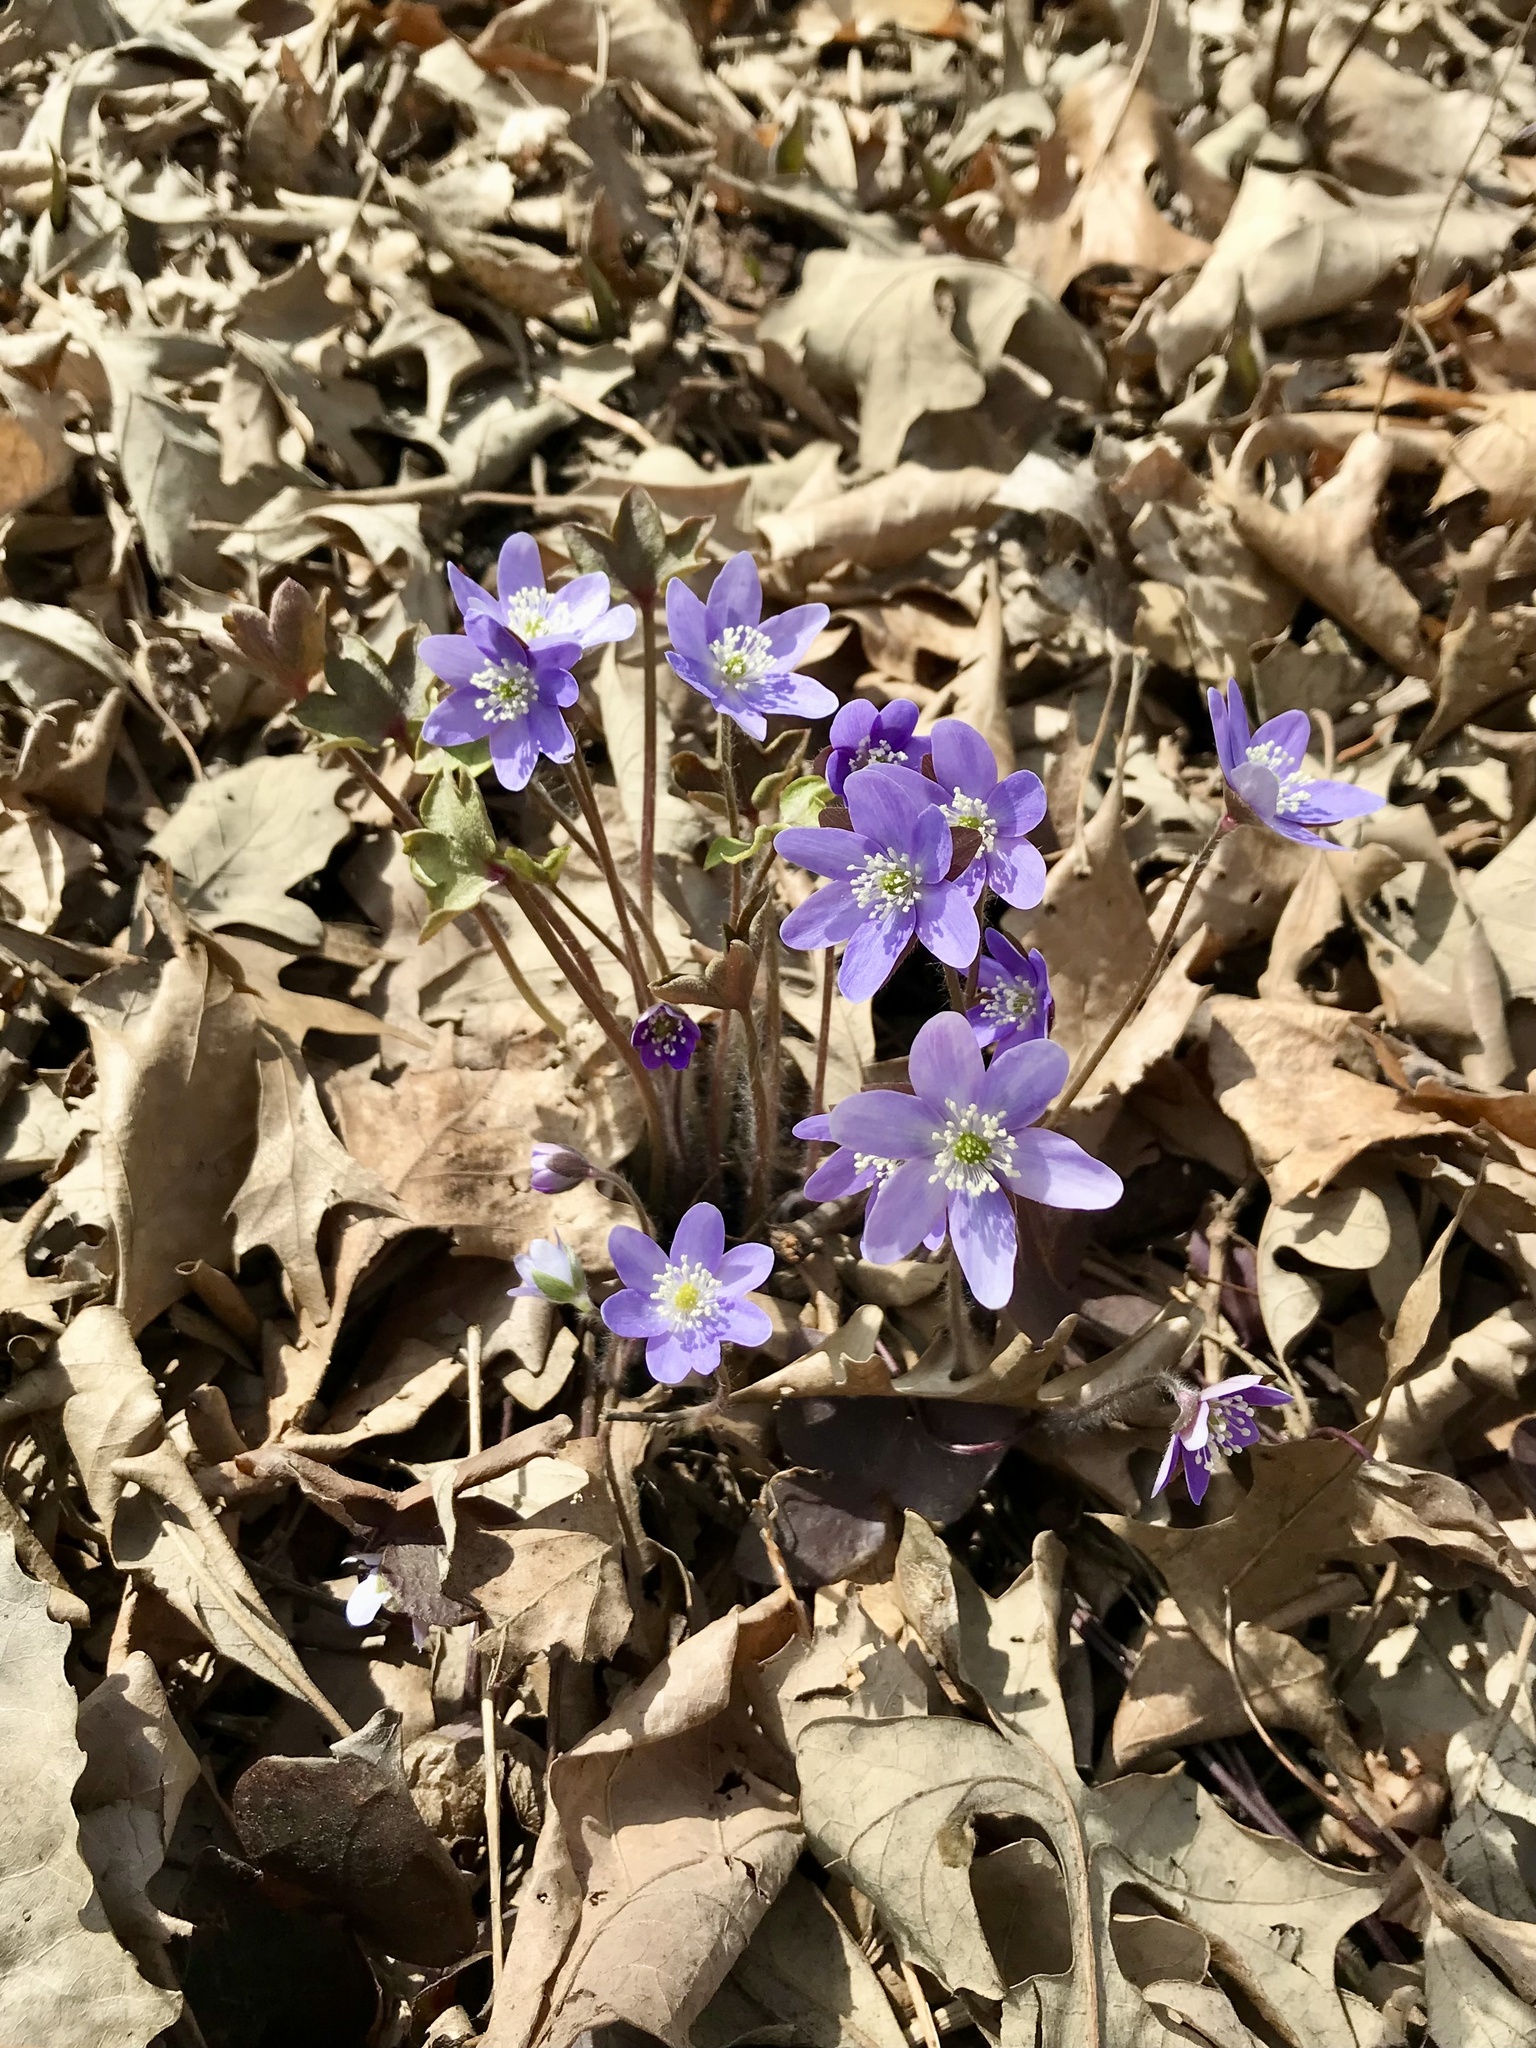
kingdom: Plantae
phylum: Tracheophyta
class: Magnoliopsida
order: Ranunculales
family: Ranunculaceae
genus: Hepatica
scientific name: Hepatica acutiloba
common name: Sharp-lobed hepatica
